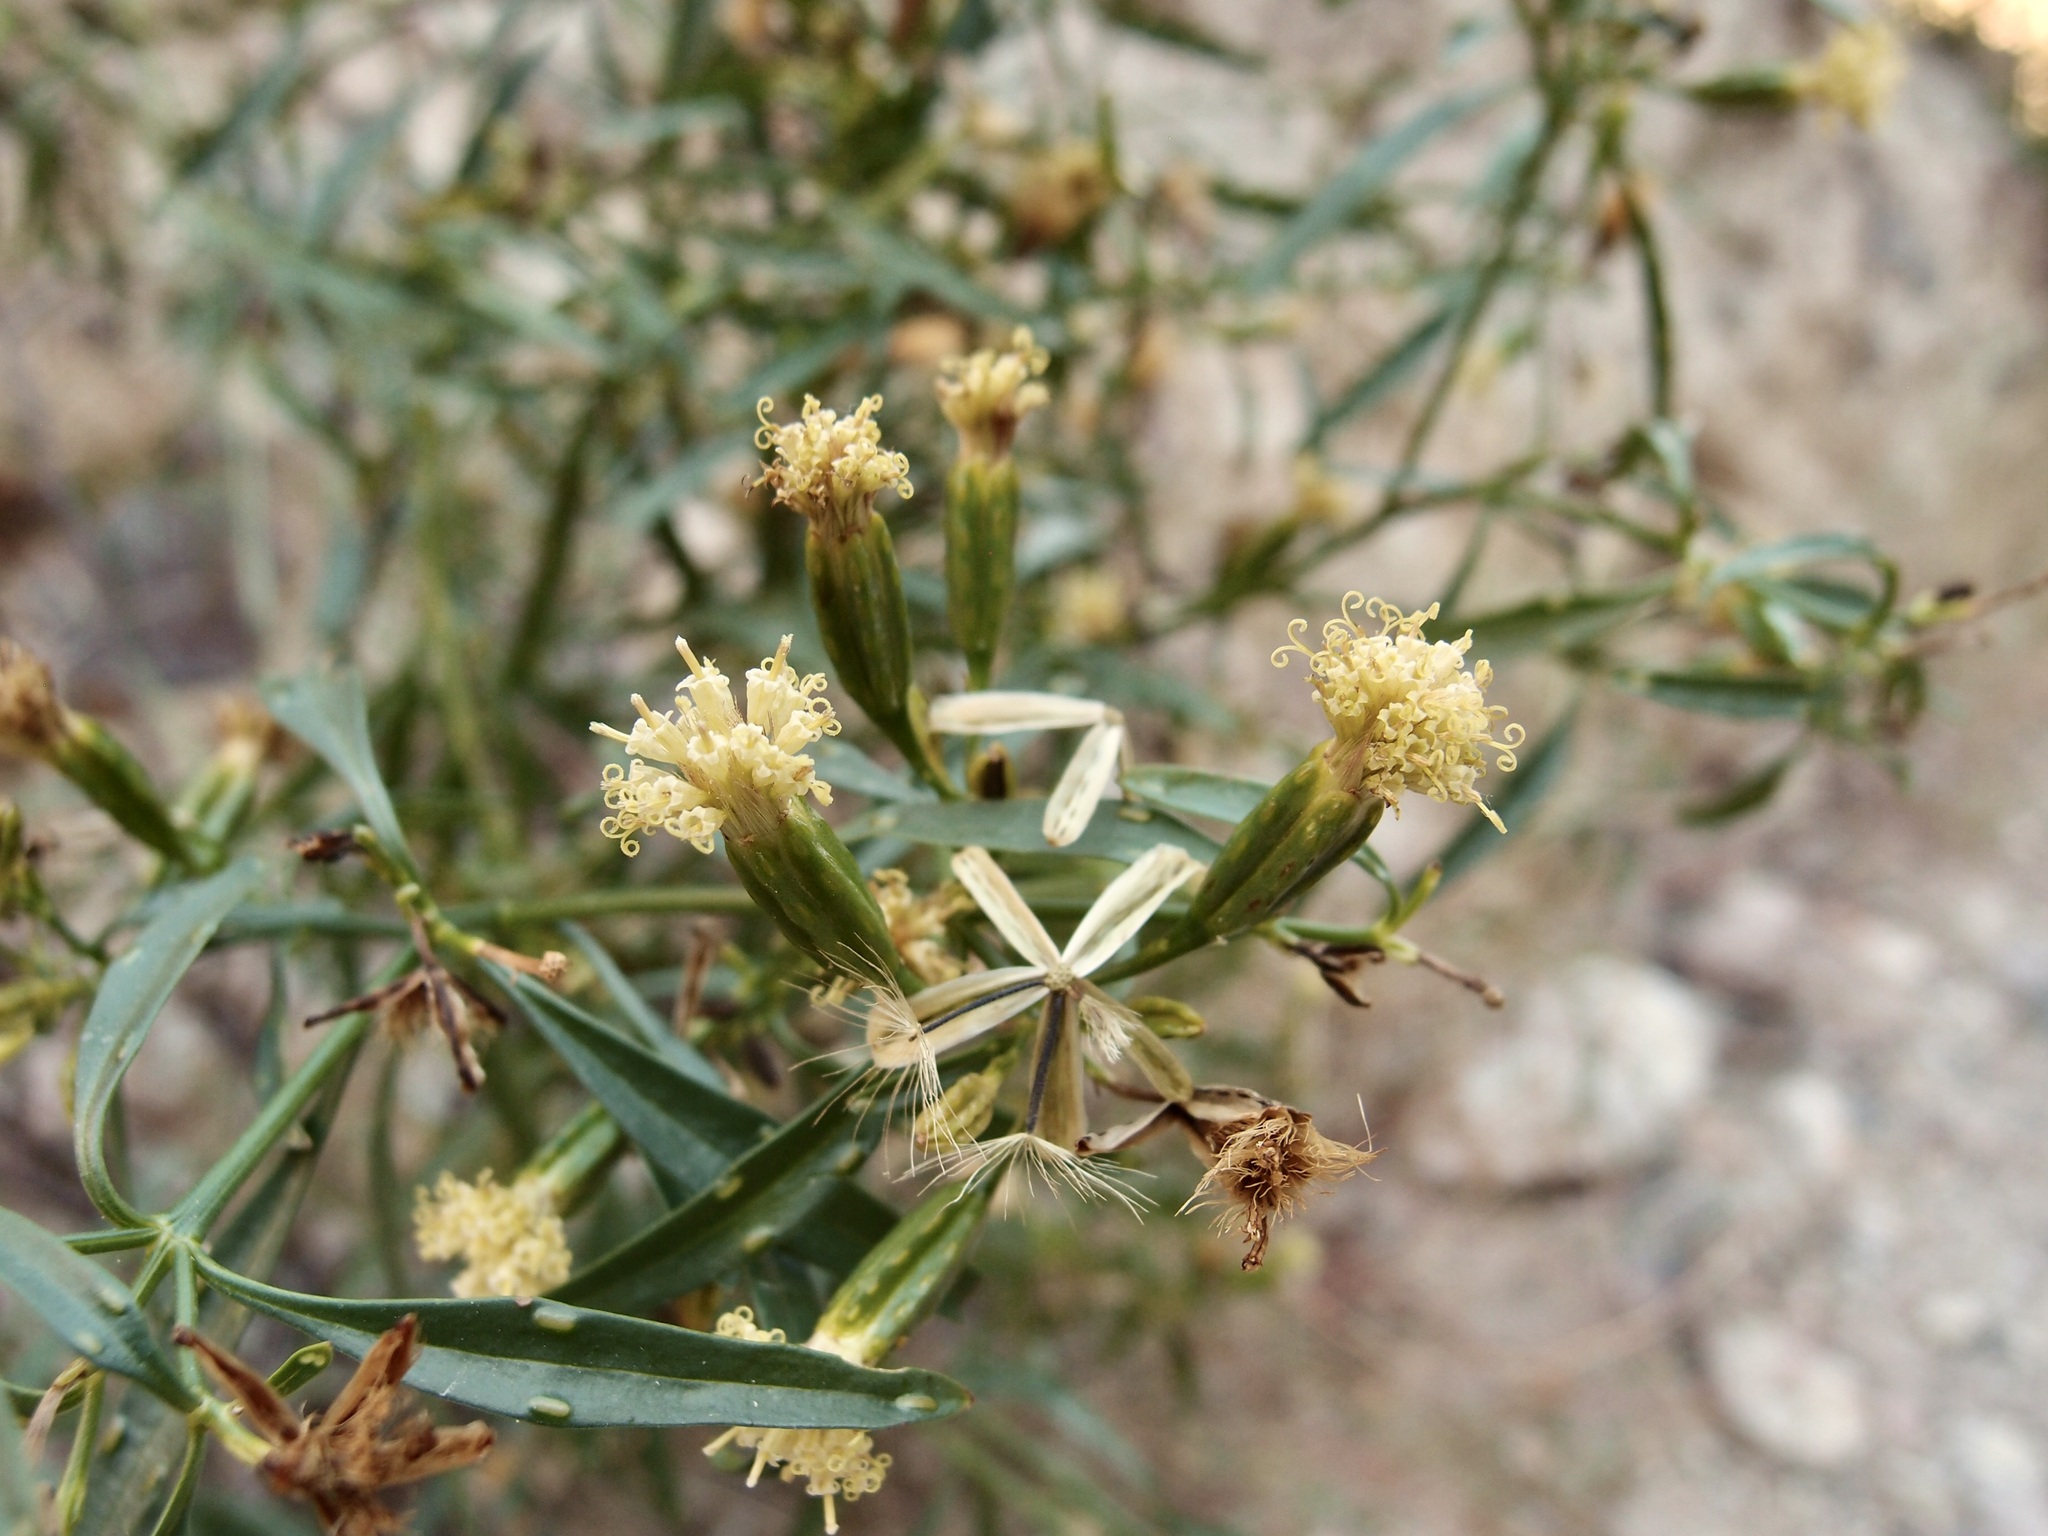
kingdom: Plantae
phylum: Tracheophyta
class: Magnoliopsida
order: Asterales
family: Asteraceae
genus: Porophyllum
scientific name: Porophyllum pausodynum
